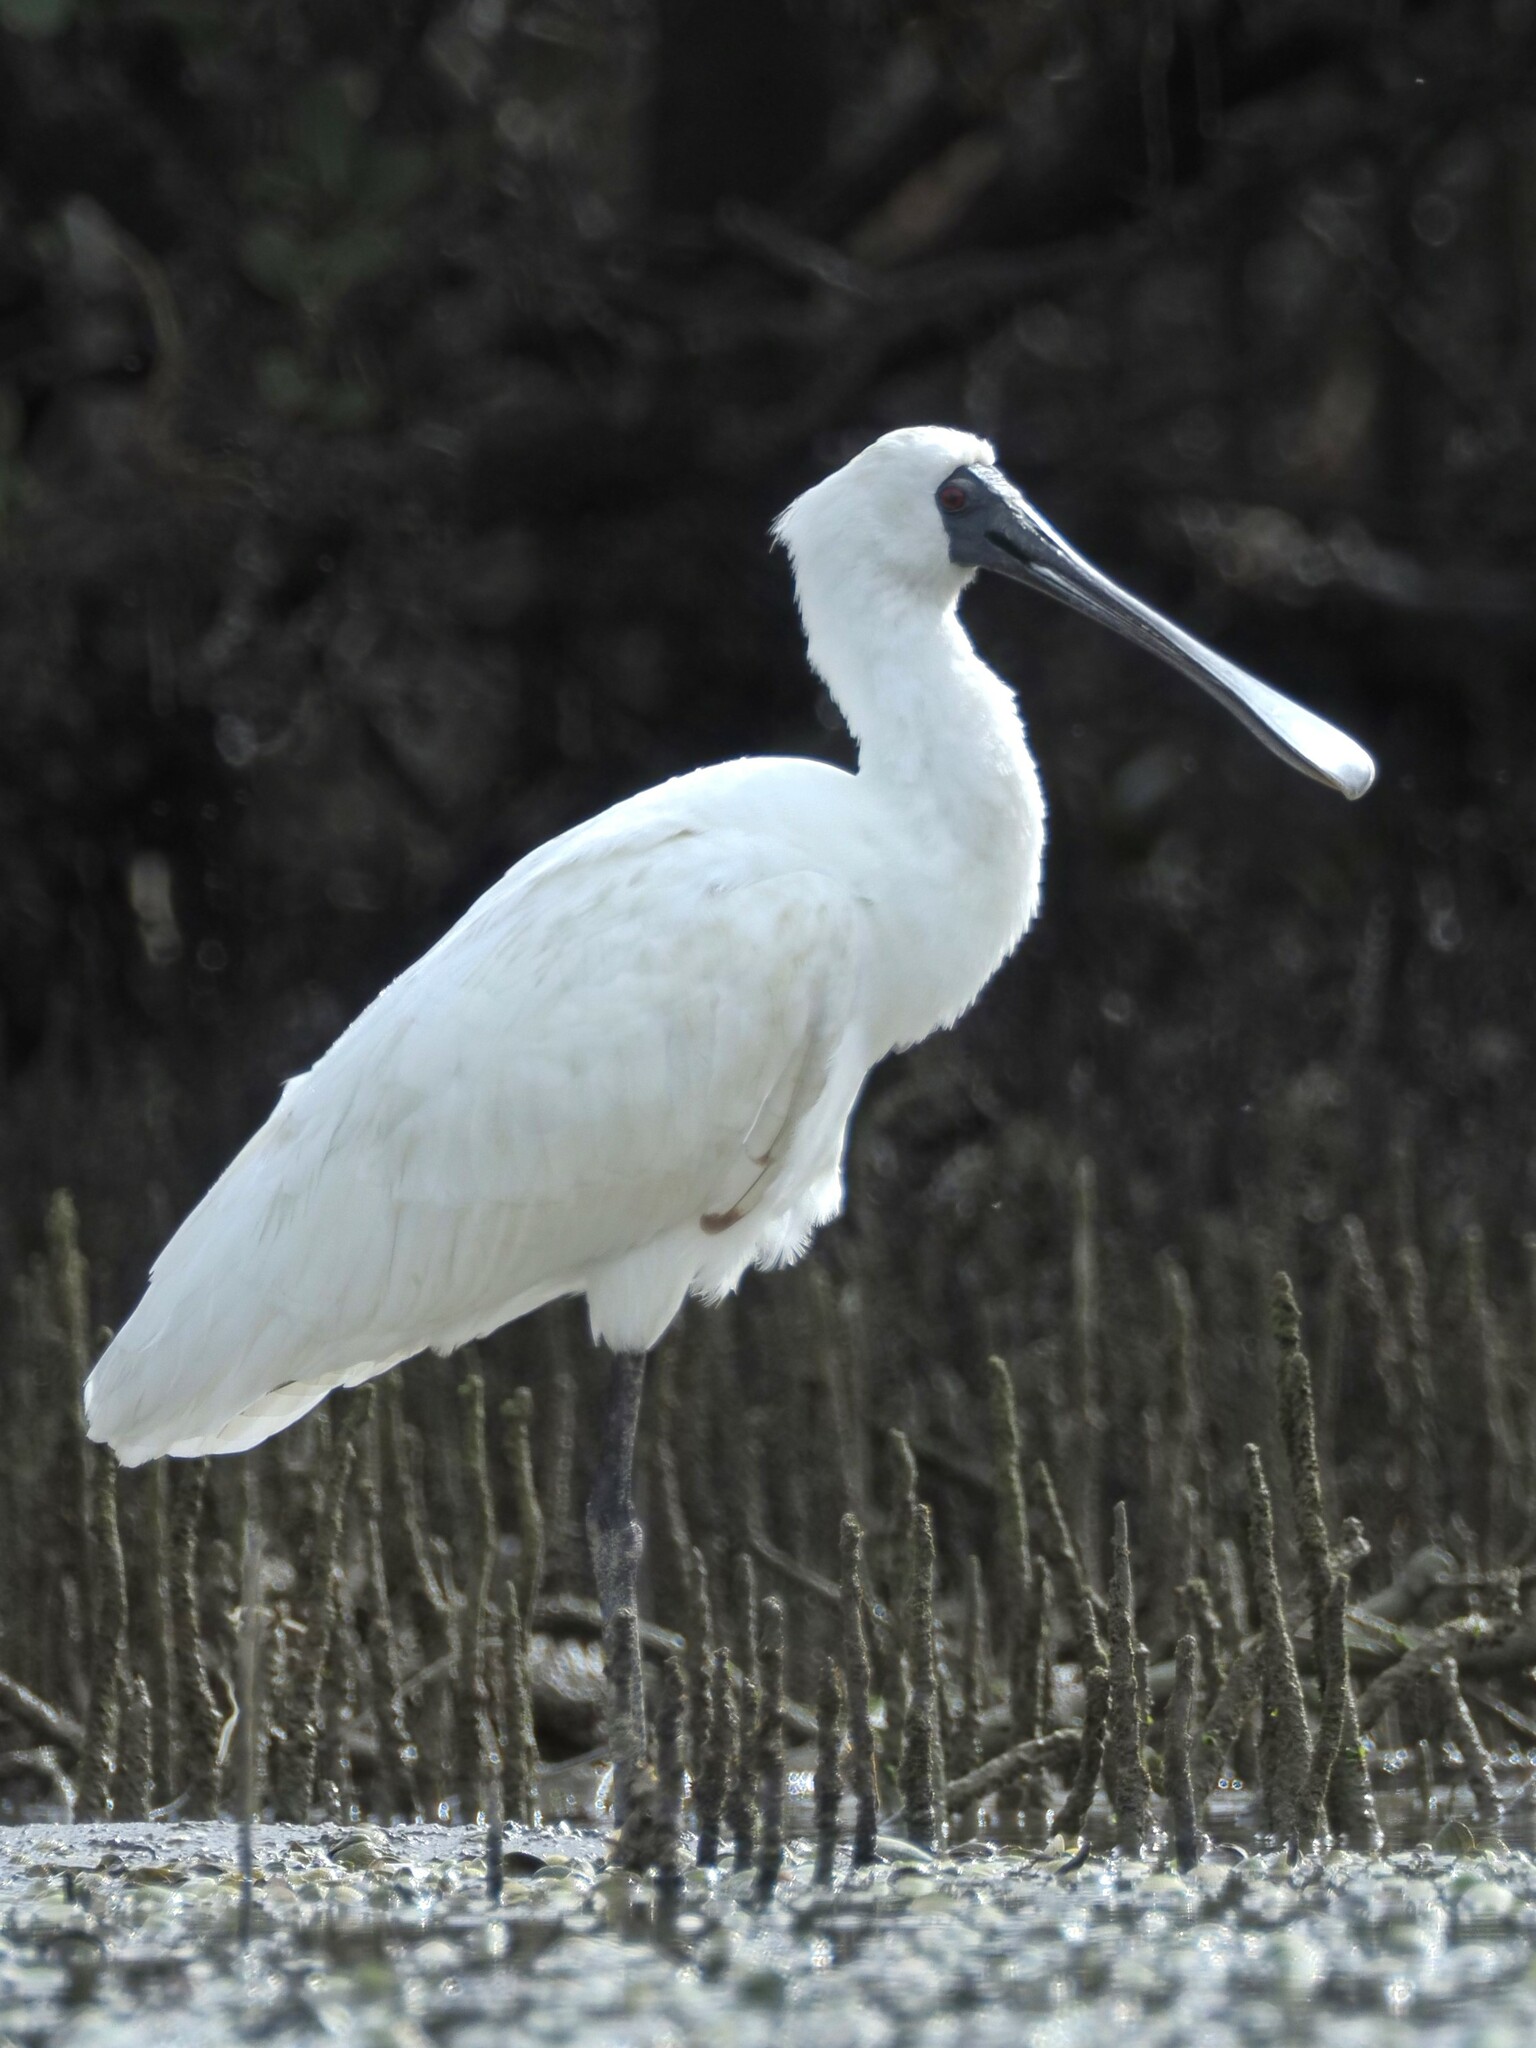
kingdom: Animalia
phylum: Chordata
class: Aves
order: Pelecaniformes
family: Threskiornithidae
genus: Platalea
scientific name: Platalea regia
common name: Royal spoonbill
